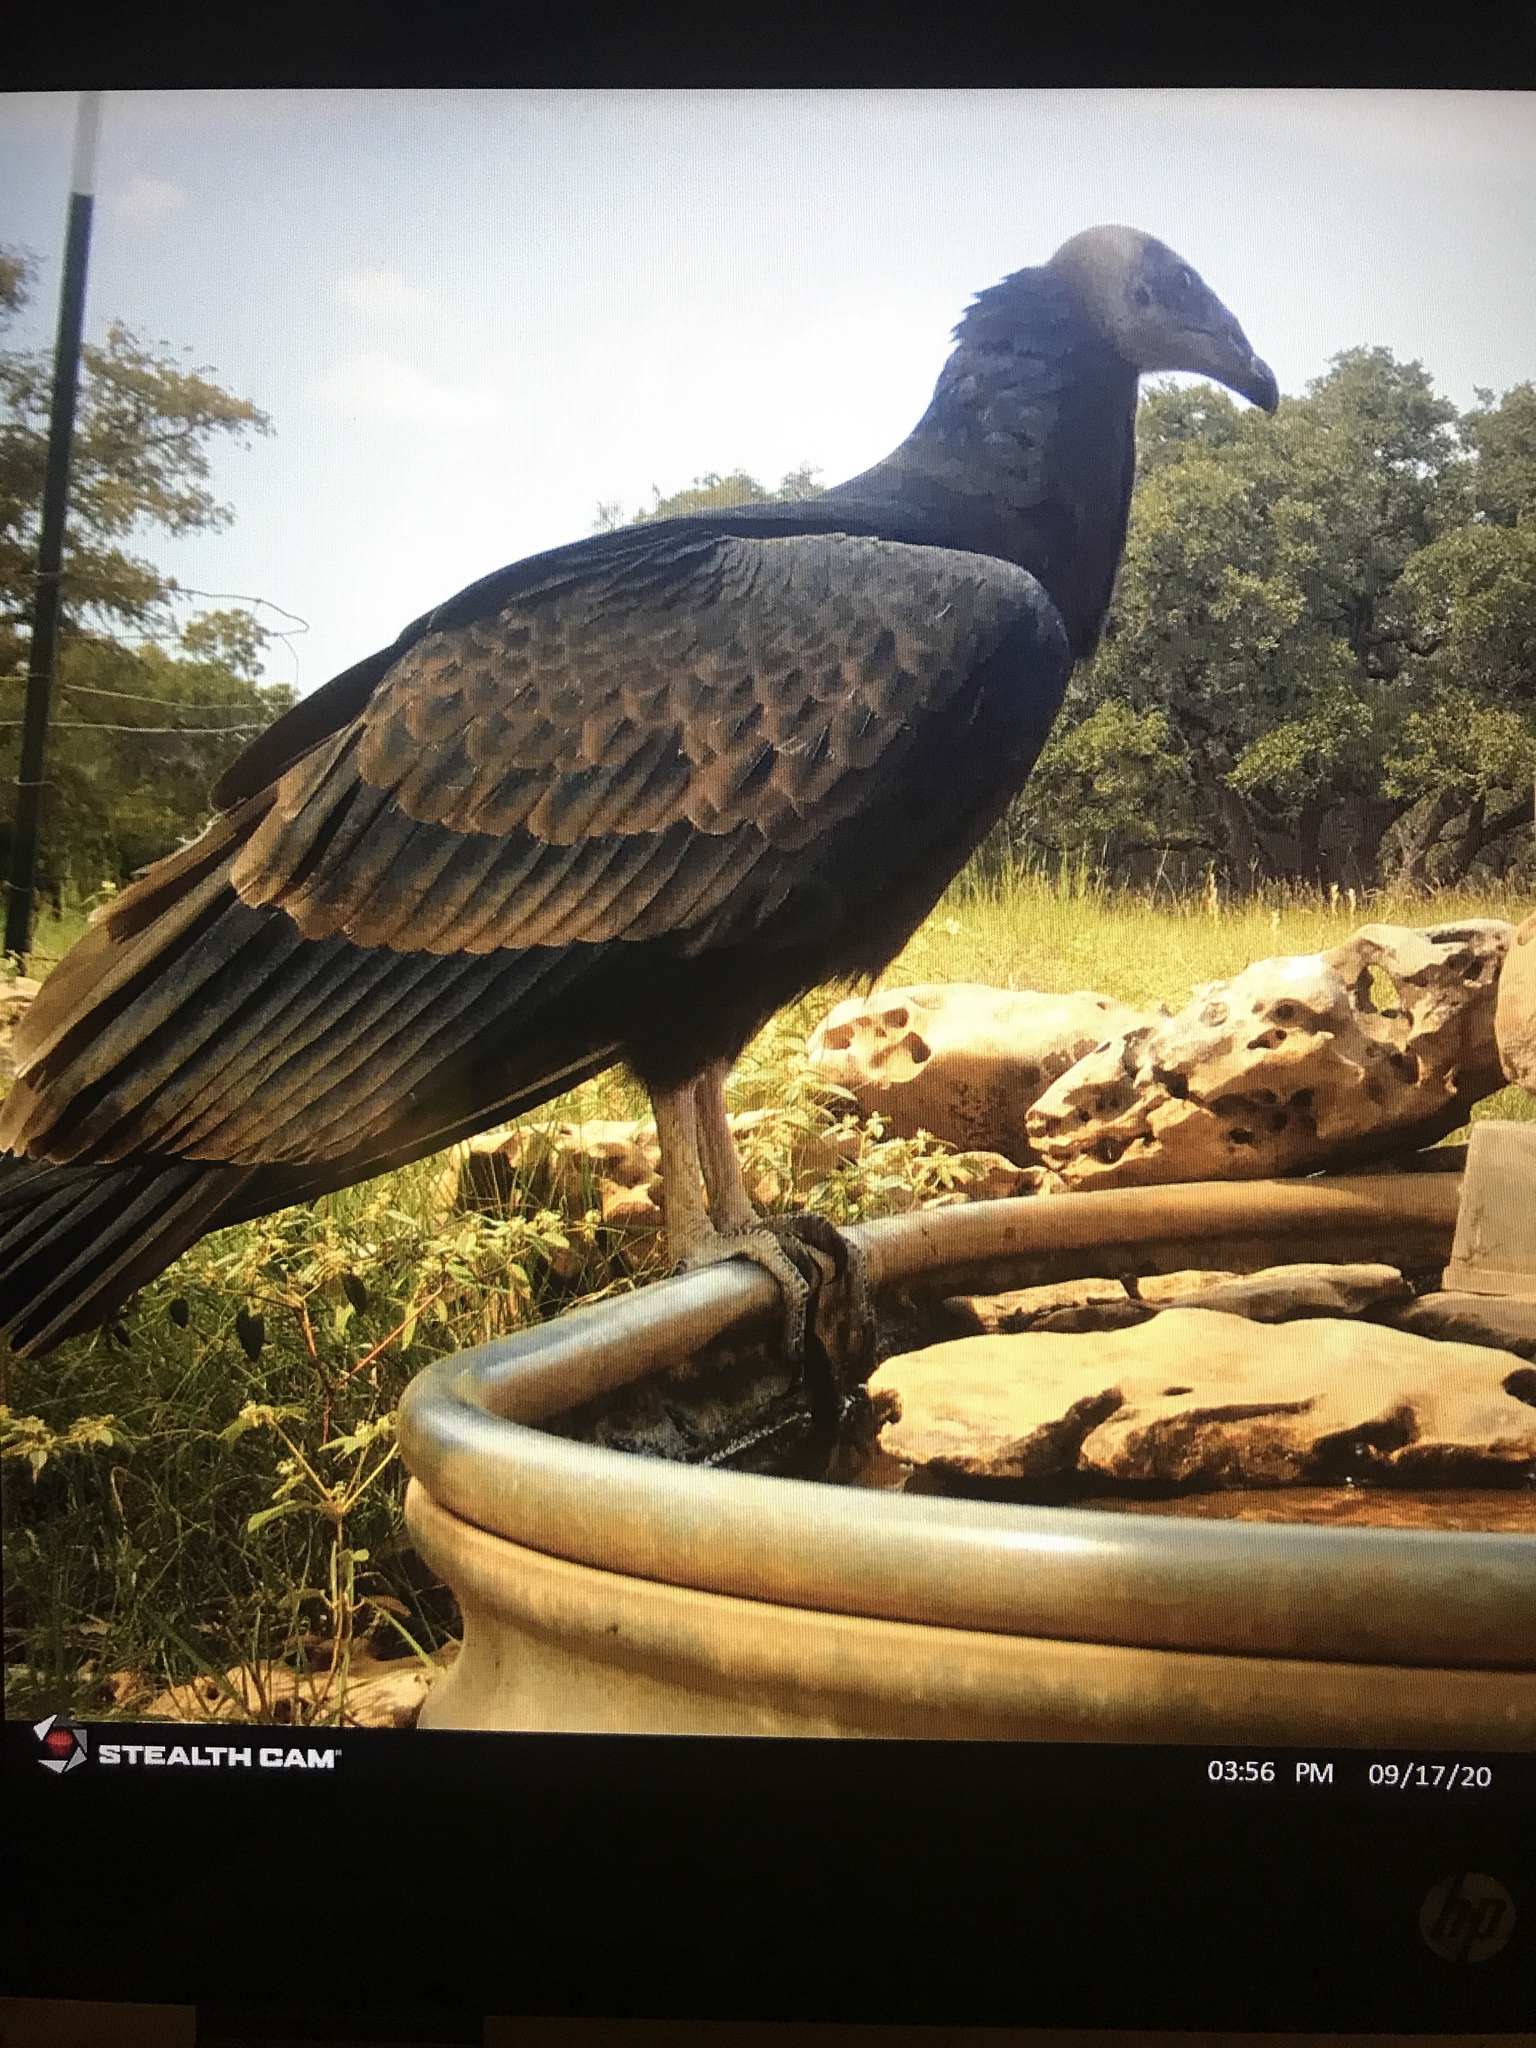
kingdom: Animalia
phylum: Chordata
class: Aves
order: Accipitriformes
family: Cathartidae
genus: Cathartes
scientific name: Cathartes aura
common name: Turkey vulture
